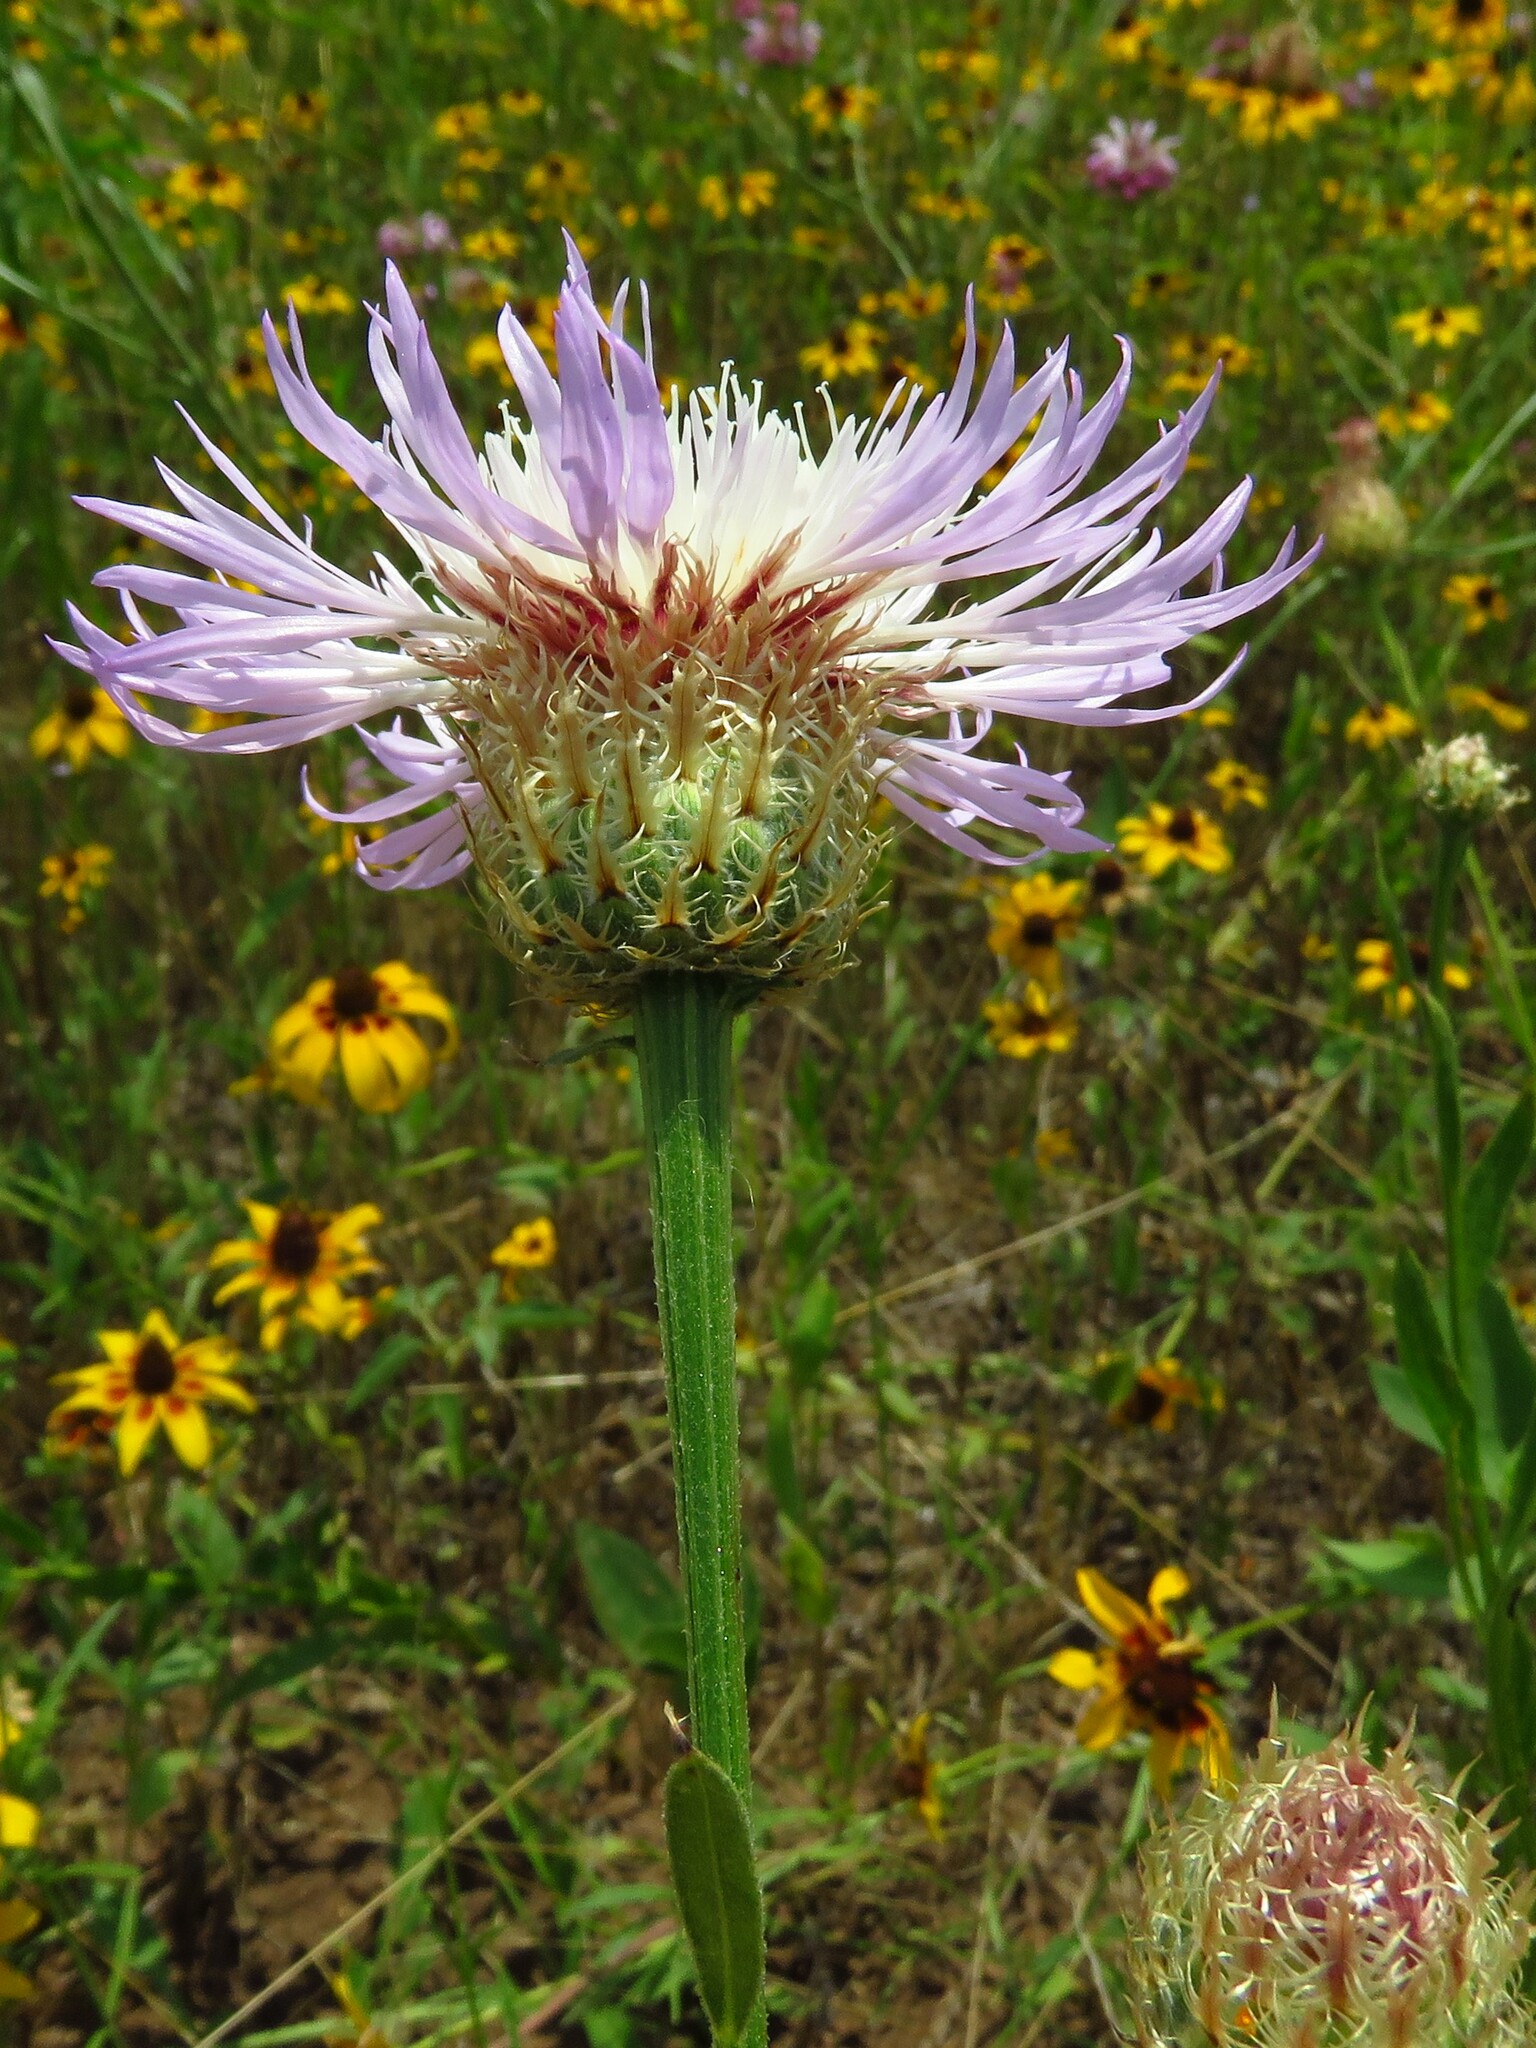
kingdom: Plantae
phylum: Tracheophyta
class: Magnoliopsida
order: Asterales
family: Asteraceae
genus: Plectocephalus
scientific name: Plectocephalus americanus
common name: American basket-flower
